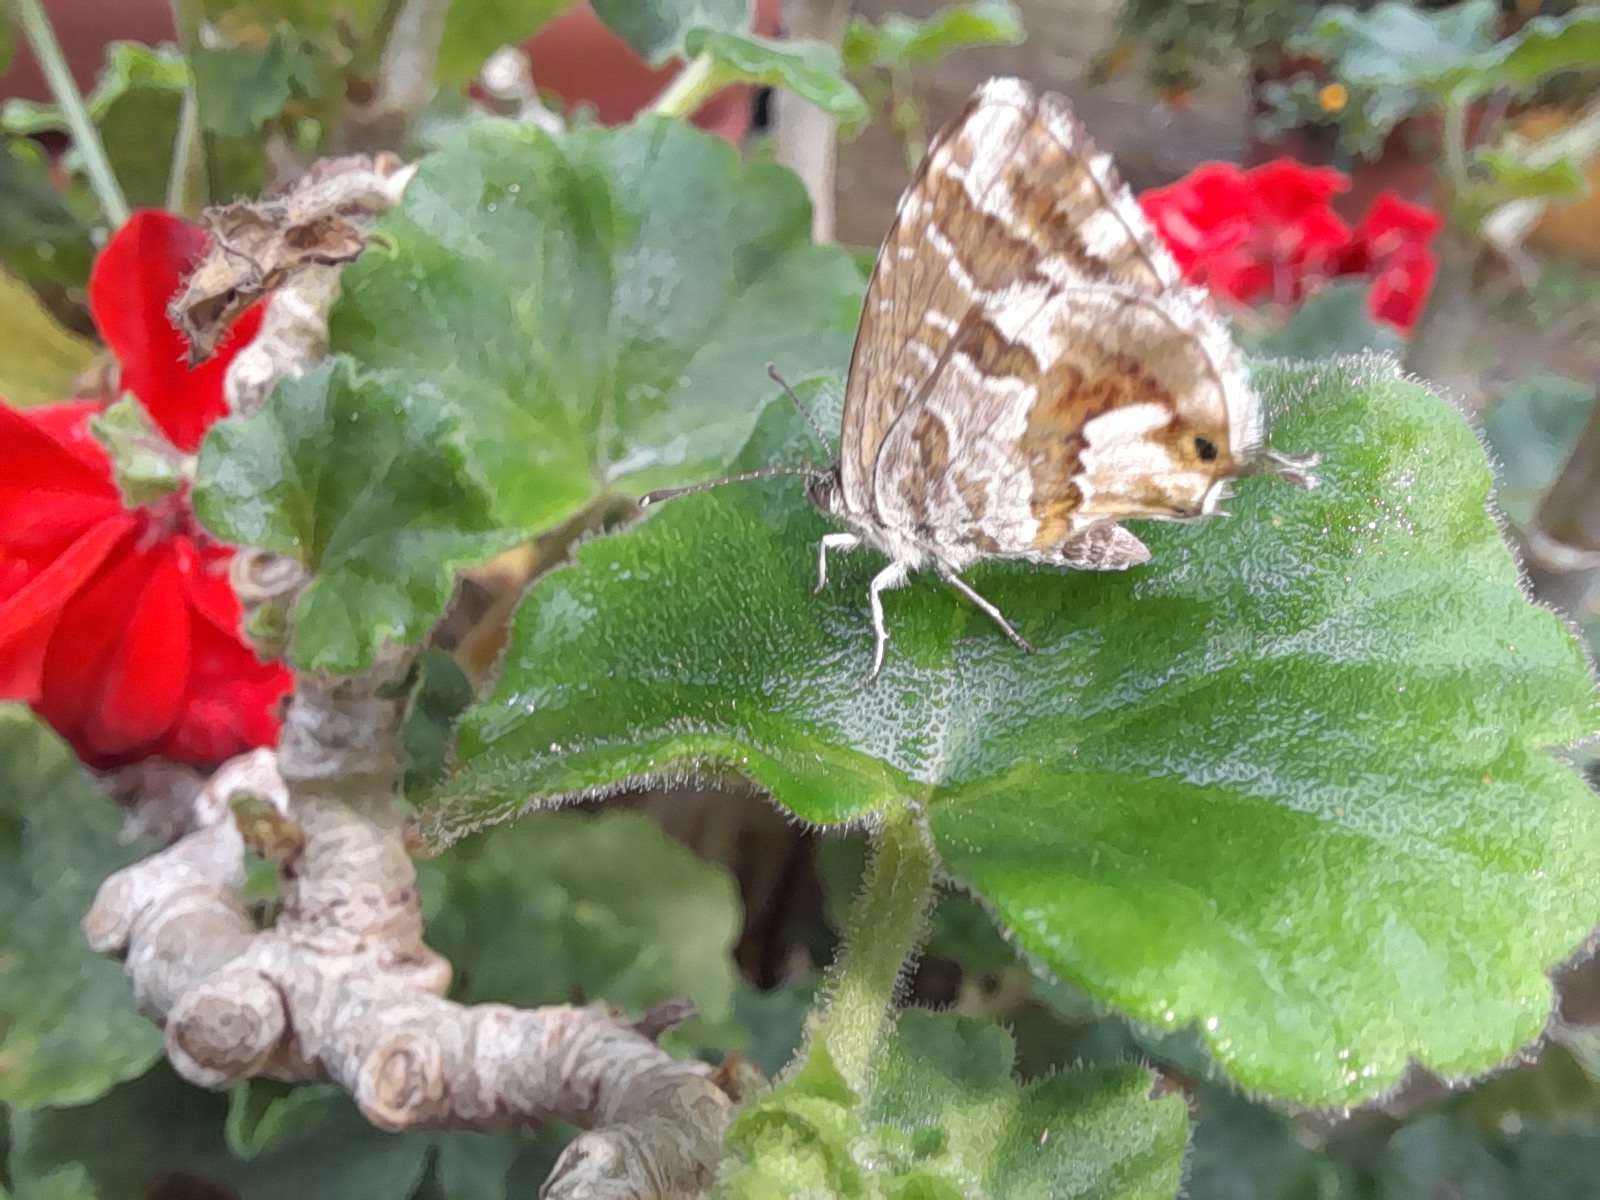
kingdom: Animalia
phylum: Arthropoda
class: Insecta
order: Lepidoptera
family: Lycaenidae
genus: Cacyreus
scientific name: Cacyreus marshalli
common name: Geranium bronze
